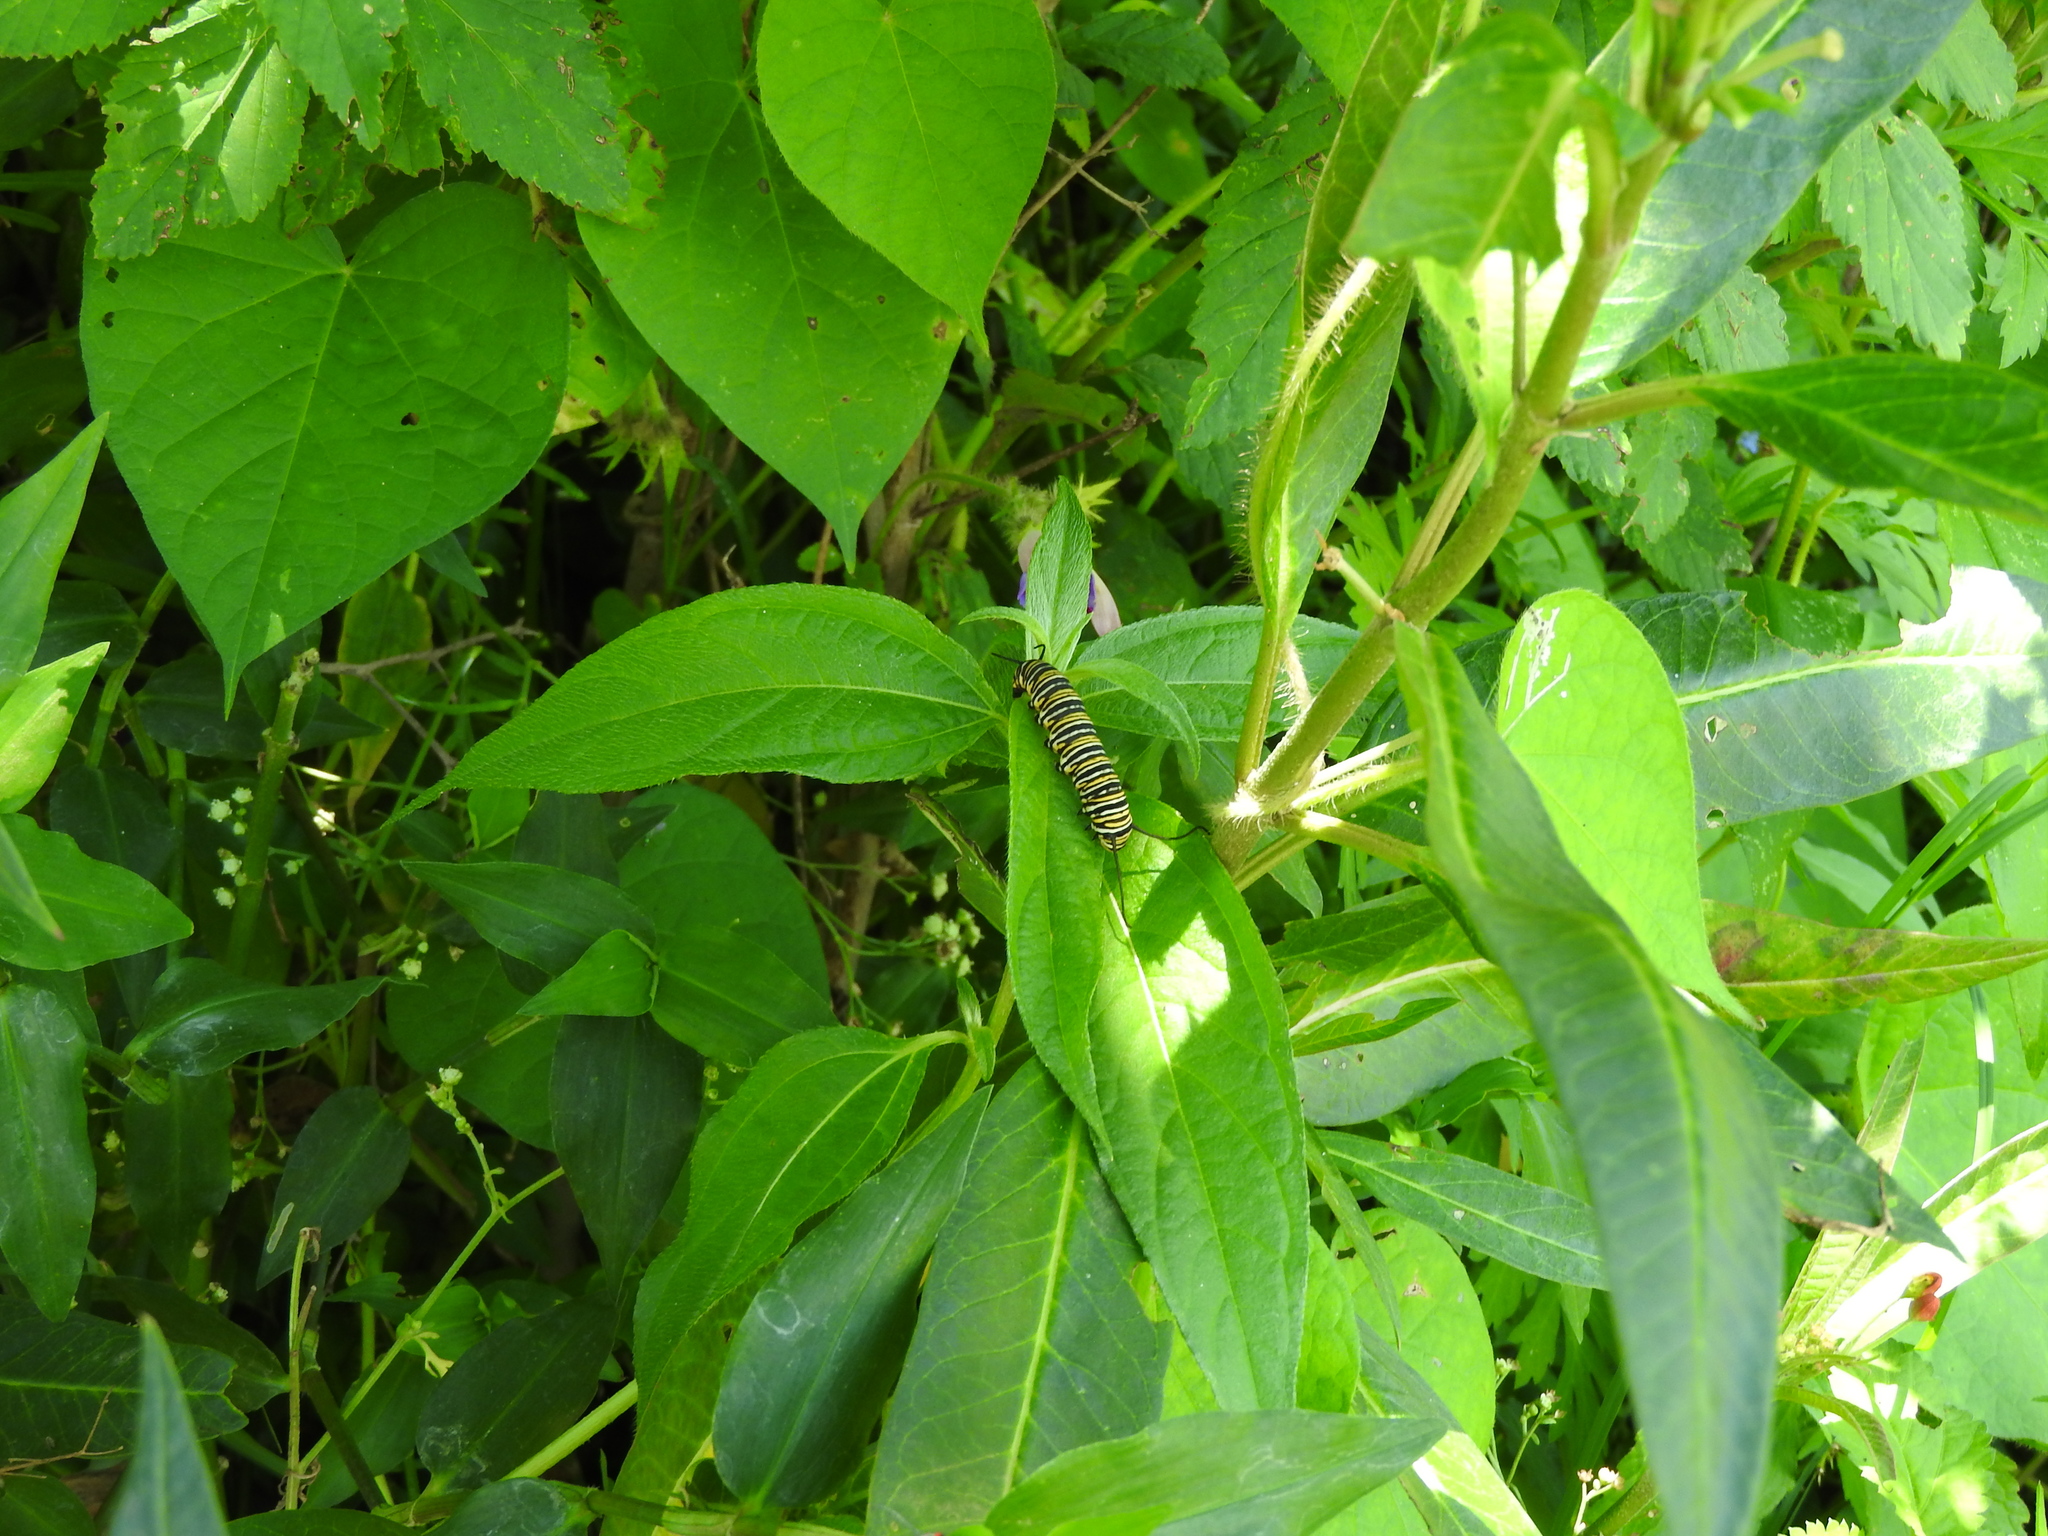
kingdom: Animalia
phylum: Arthropoda
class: Insecta
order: Lepidoptera
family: Nymphalidae
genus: Danaus
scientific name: Danaus plexippus
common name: Monarch
